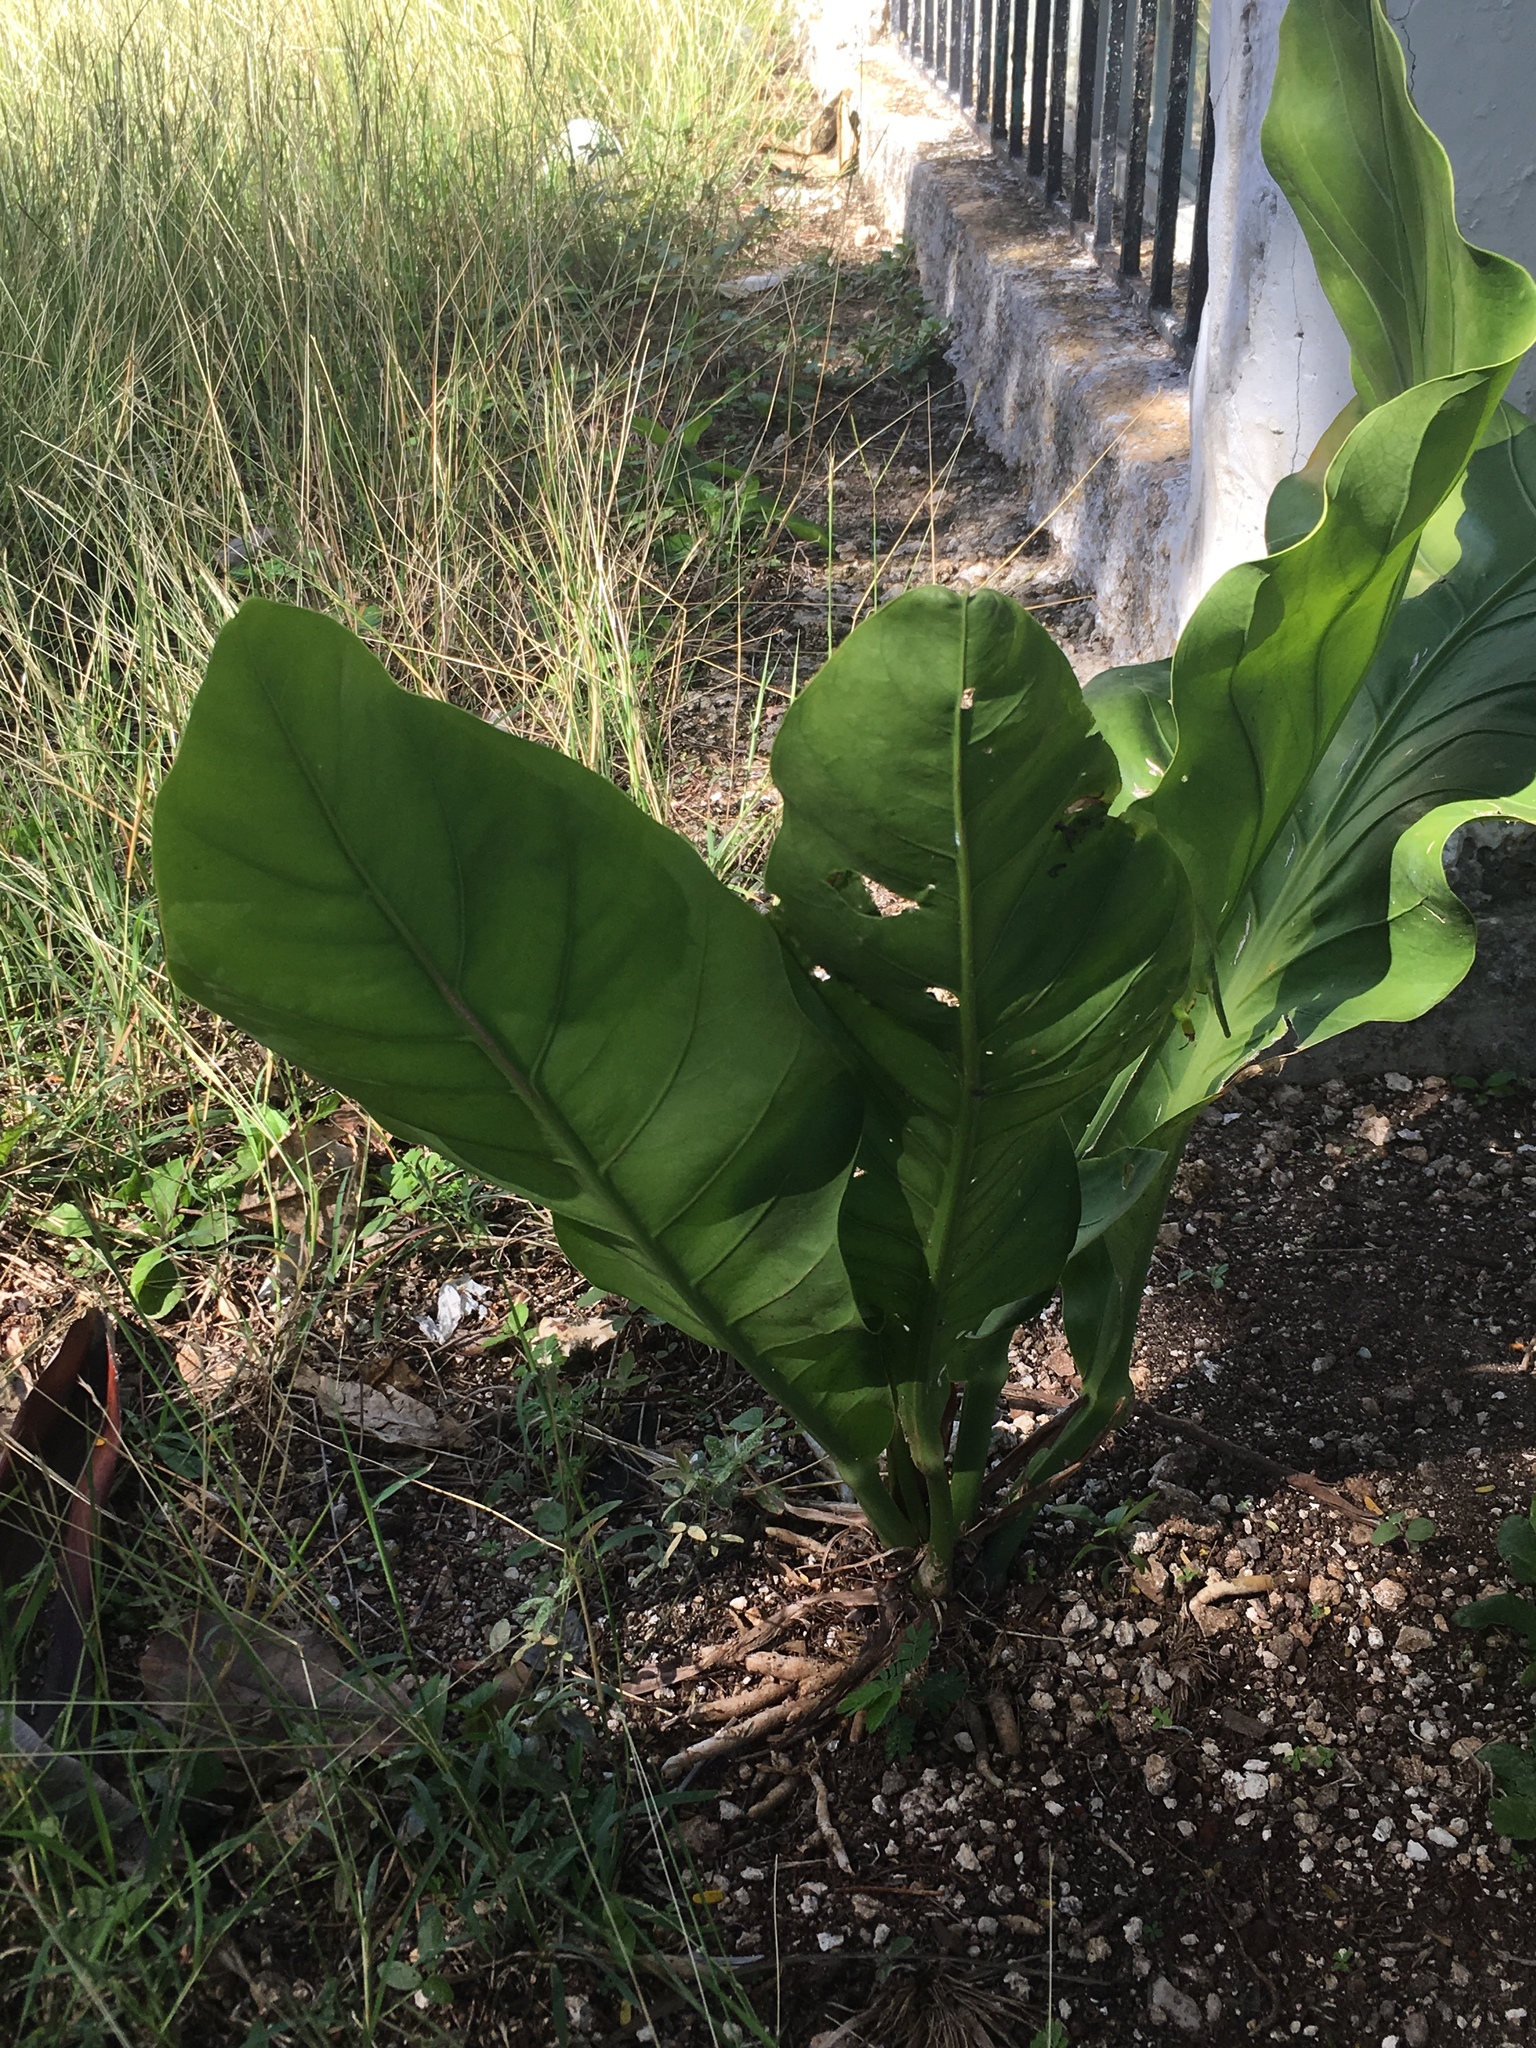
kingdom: Plantae
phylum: Tracheophyta
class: Liliopsida
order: Alismatales
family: Araceae
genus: Anthurium
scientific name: Anthurium schlechtendalii
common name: Laceleaf
